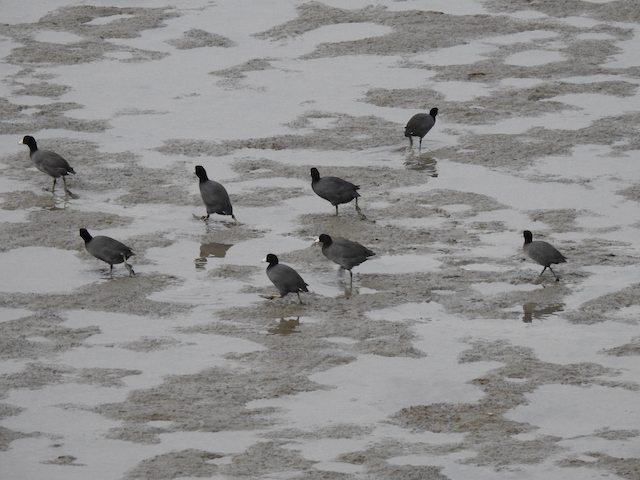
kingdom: Animalia
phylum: Chordata
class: Aves
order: Gruiformes
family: Rallidae
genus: Fulica
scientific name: Fulica americana
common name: American coot
